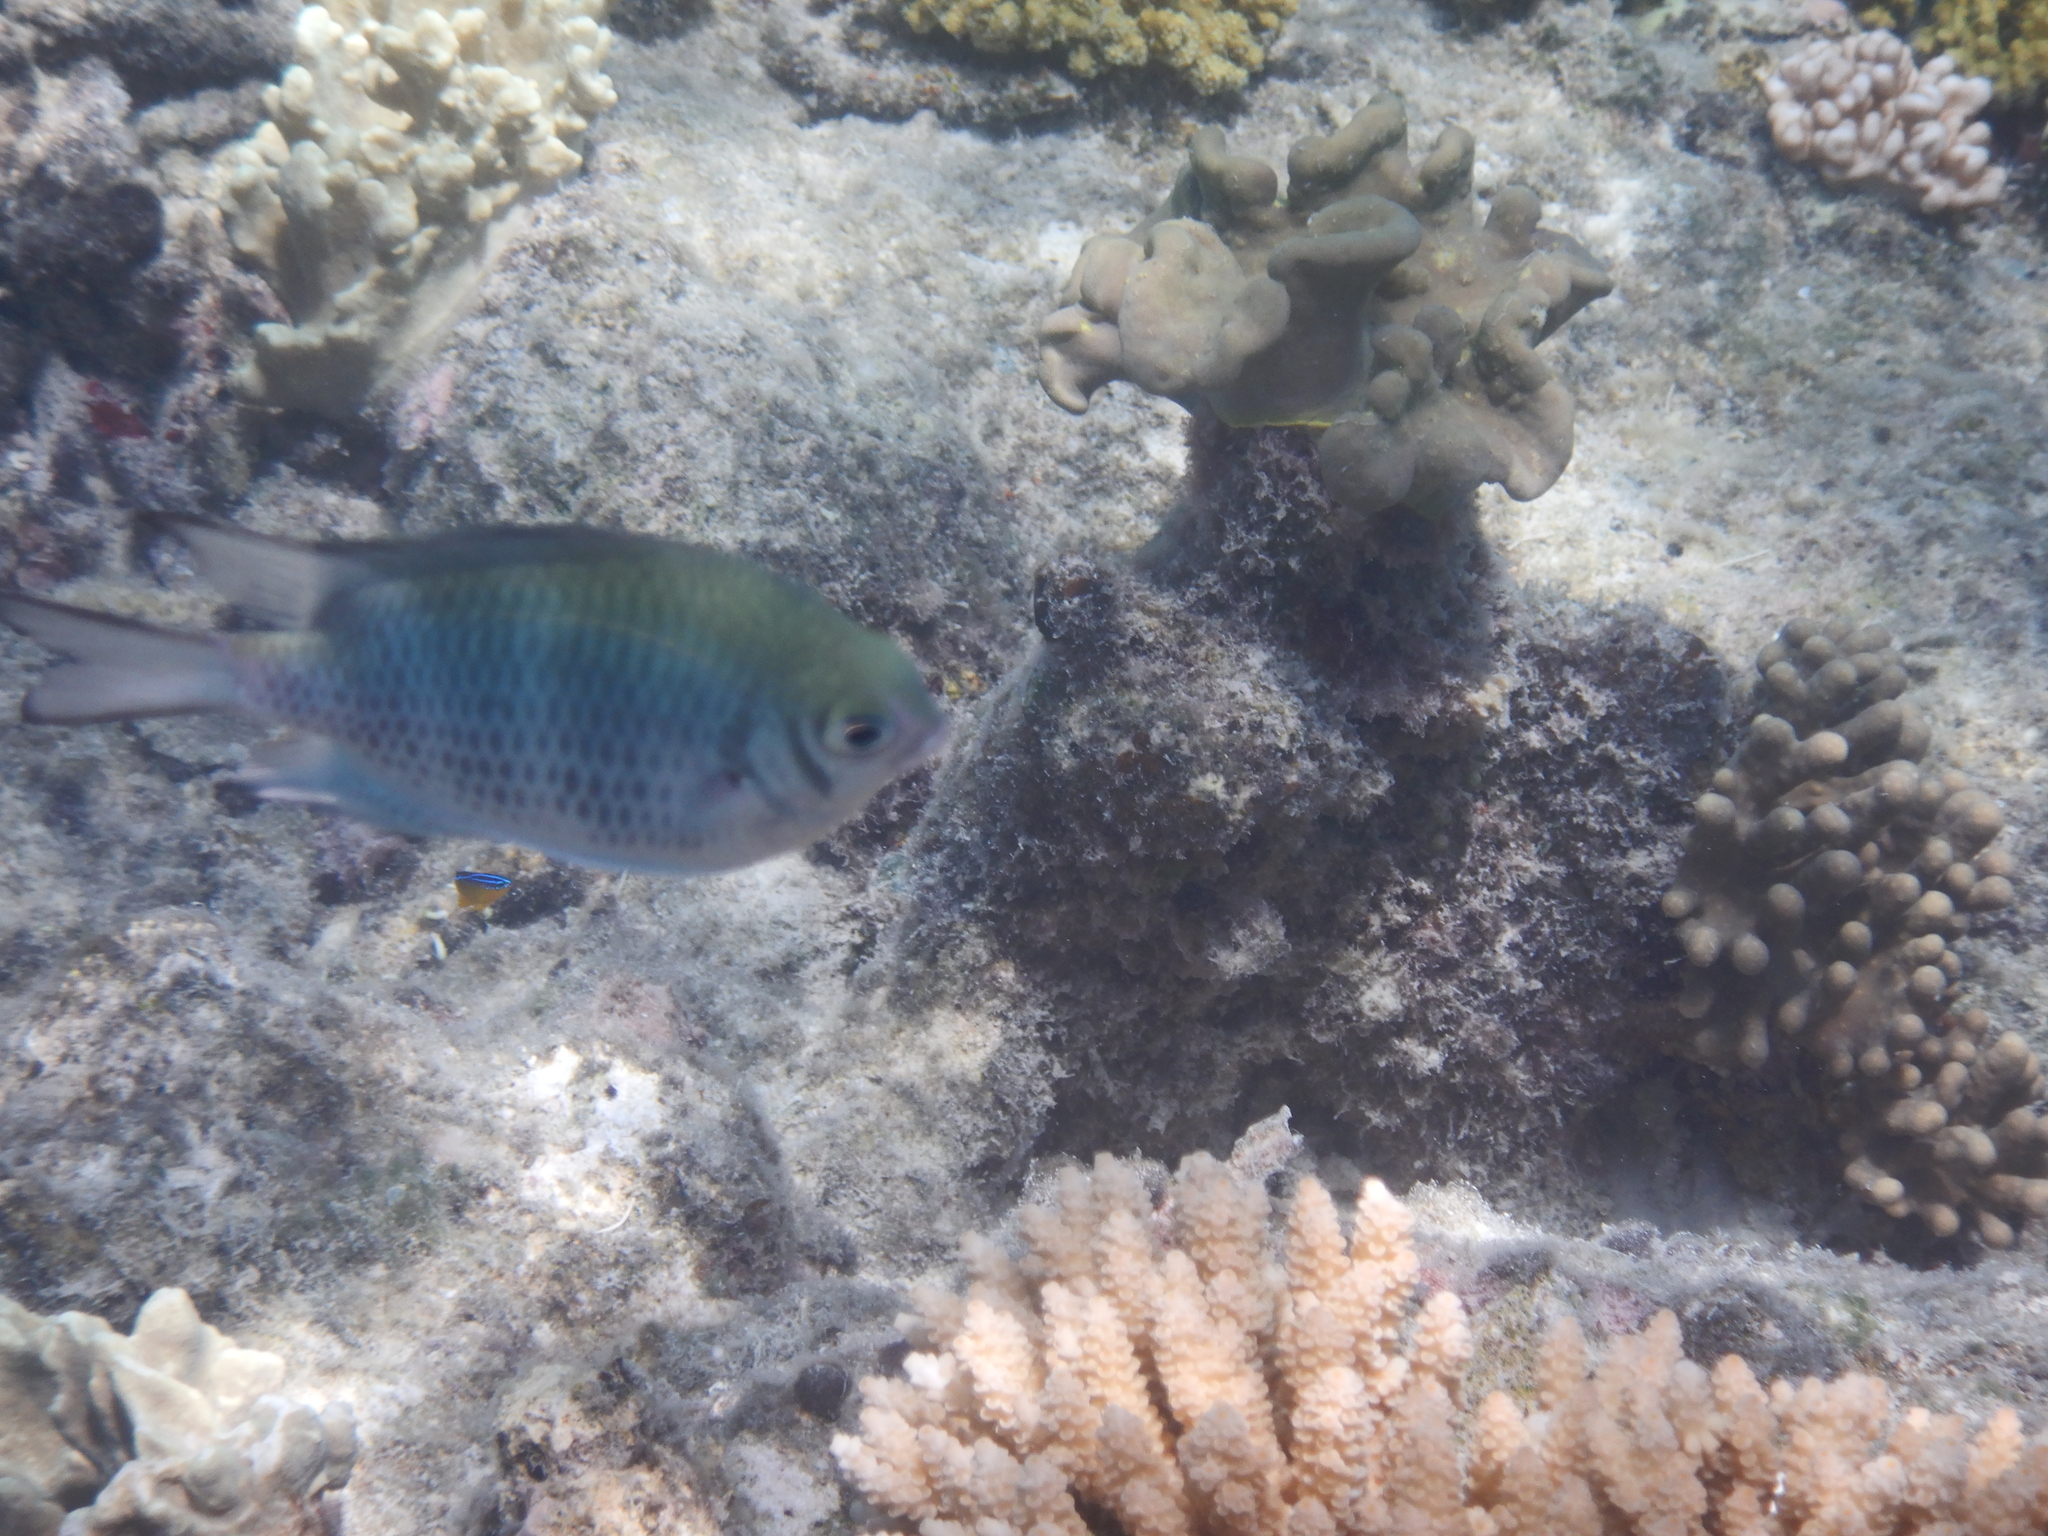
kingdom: Animalia
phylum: Chordata
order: Perciformes
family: Pomacentridae
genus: Amblyglyphidodon
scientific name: Amblyglyphidodon curacao
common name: Staghorn damsel
